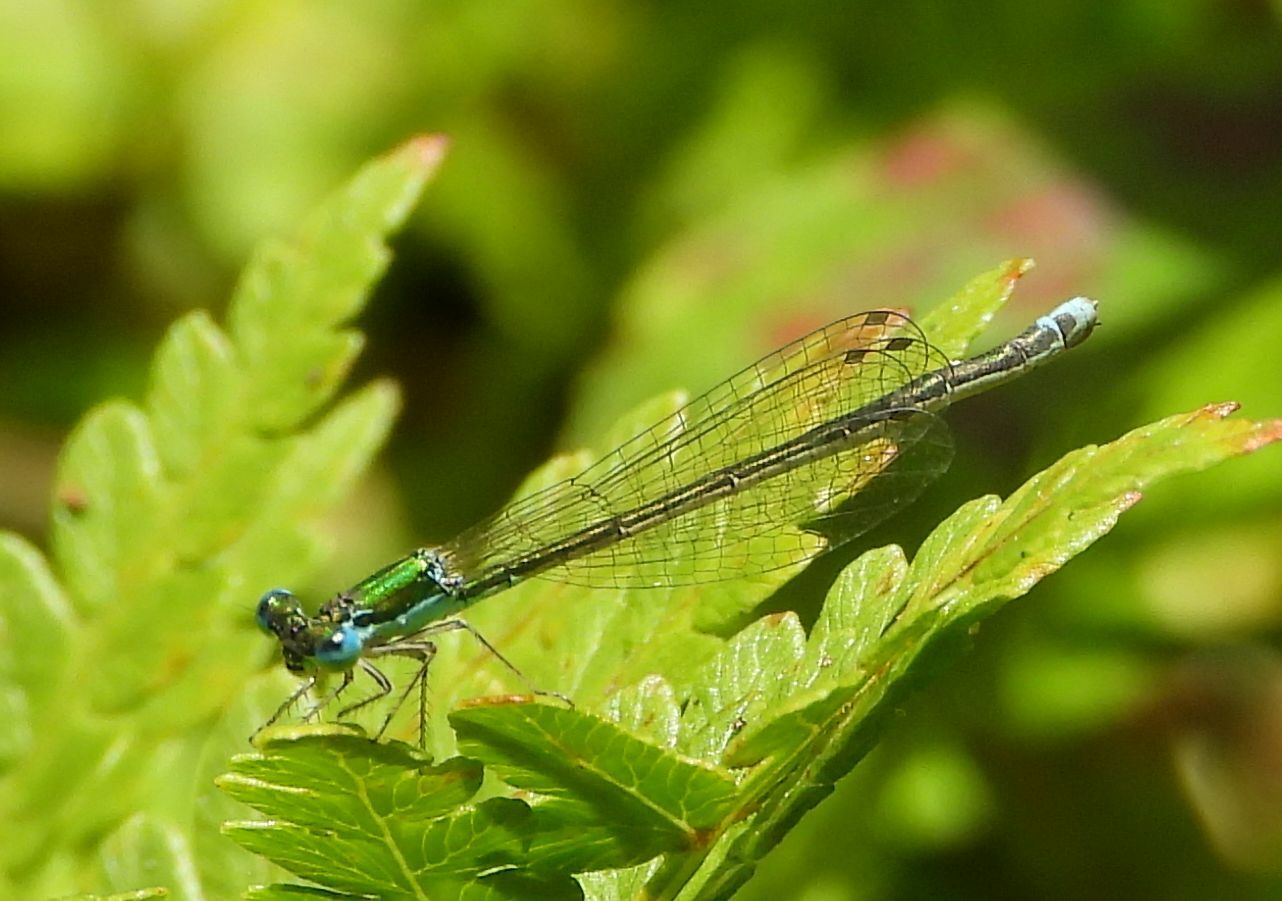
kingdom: Animalia
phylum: Arthropoda
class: Insecta
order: Odonata
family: Coenagrionidae
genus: Nehalennia
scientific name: Nehalennia irene
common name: Sedge sprite
